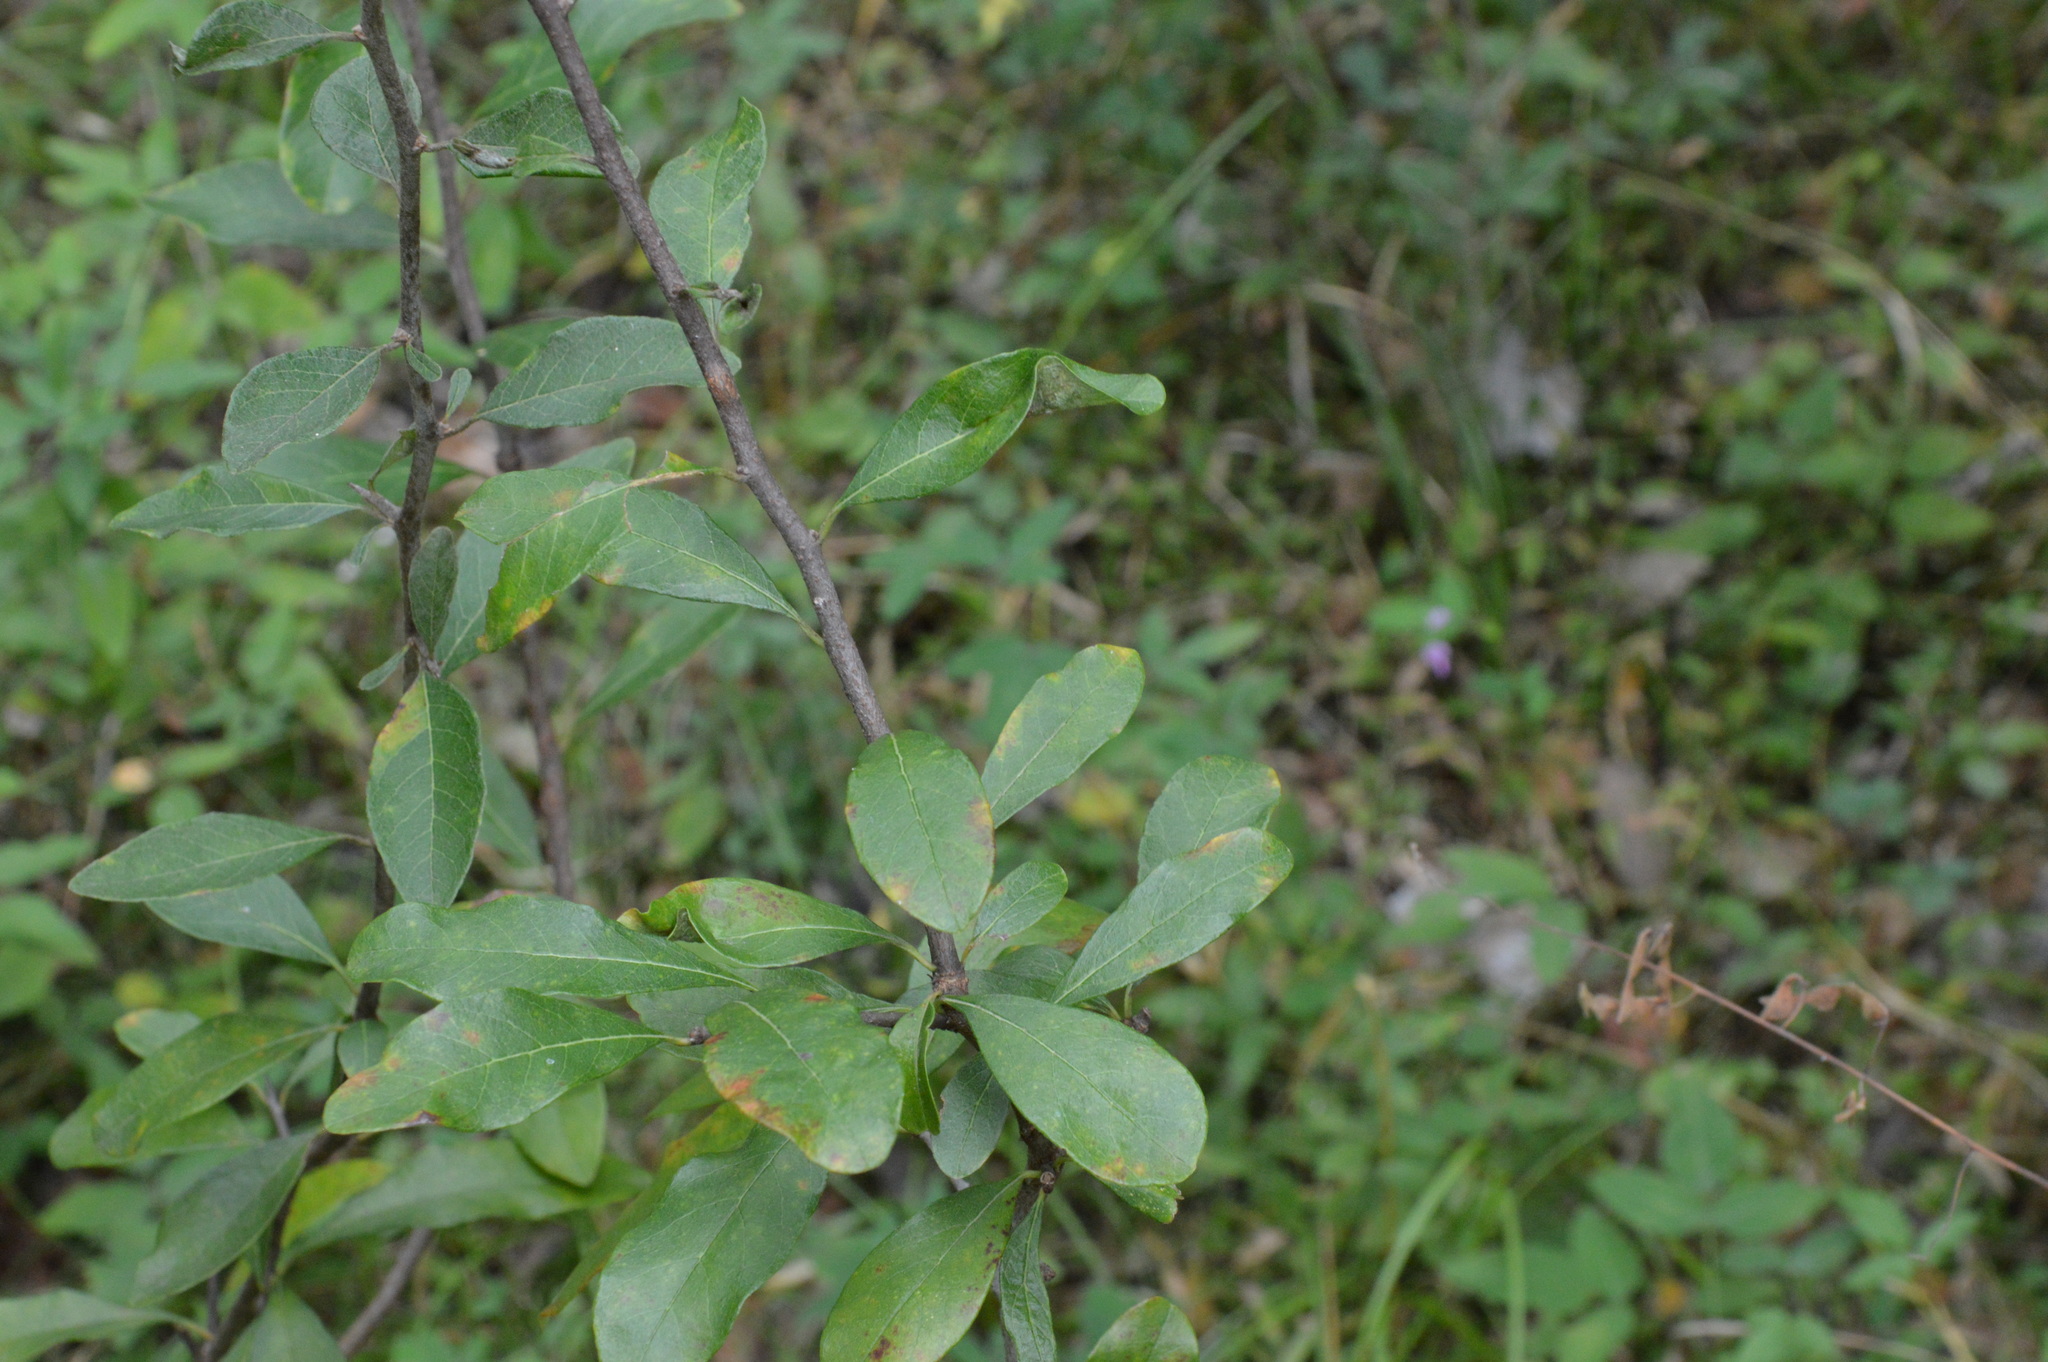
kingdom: Plantae
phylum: Tracheophyta
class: Magnoliopsida
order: Ericales
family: Sapotaceae
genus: Sideroxylon
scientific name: Sideroxylon lanuginosum
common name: Chittamwood
